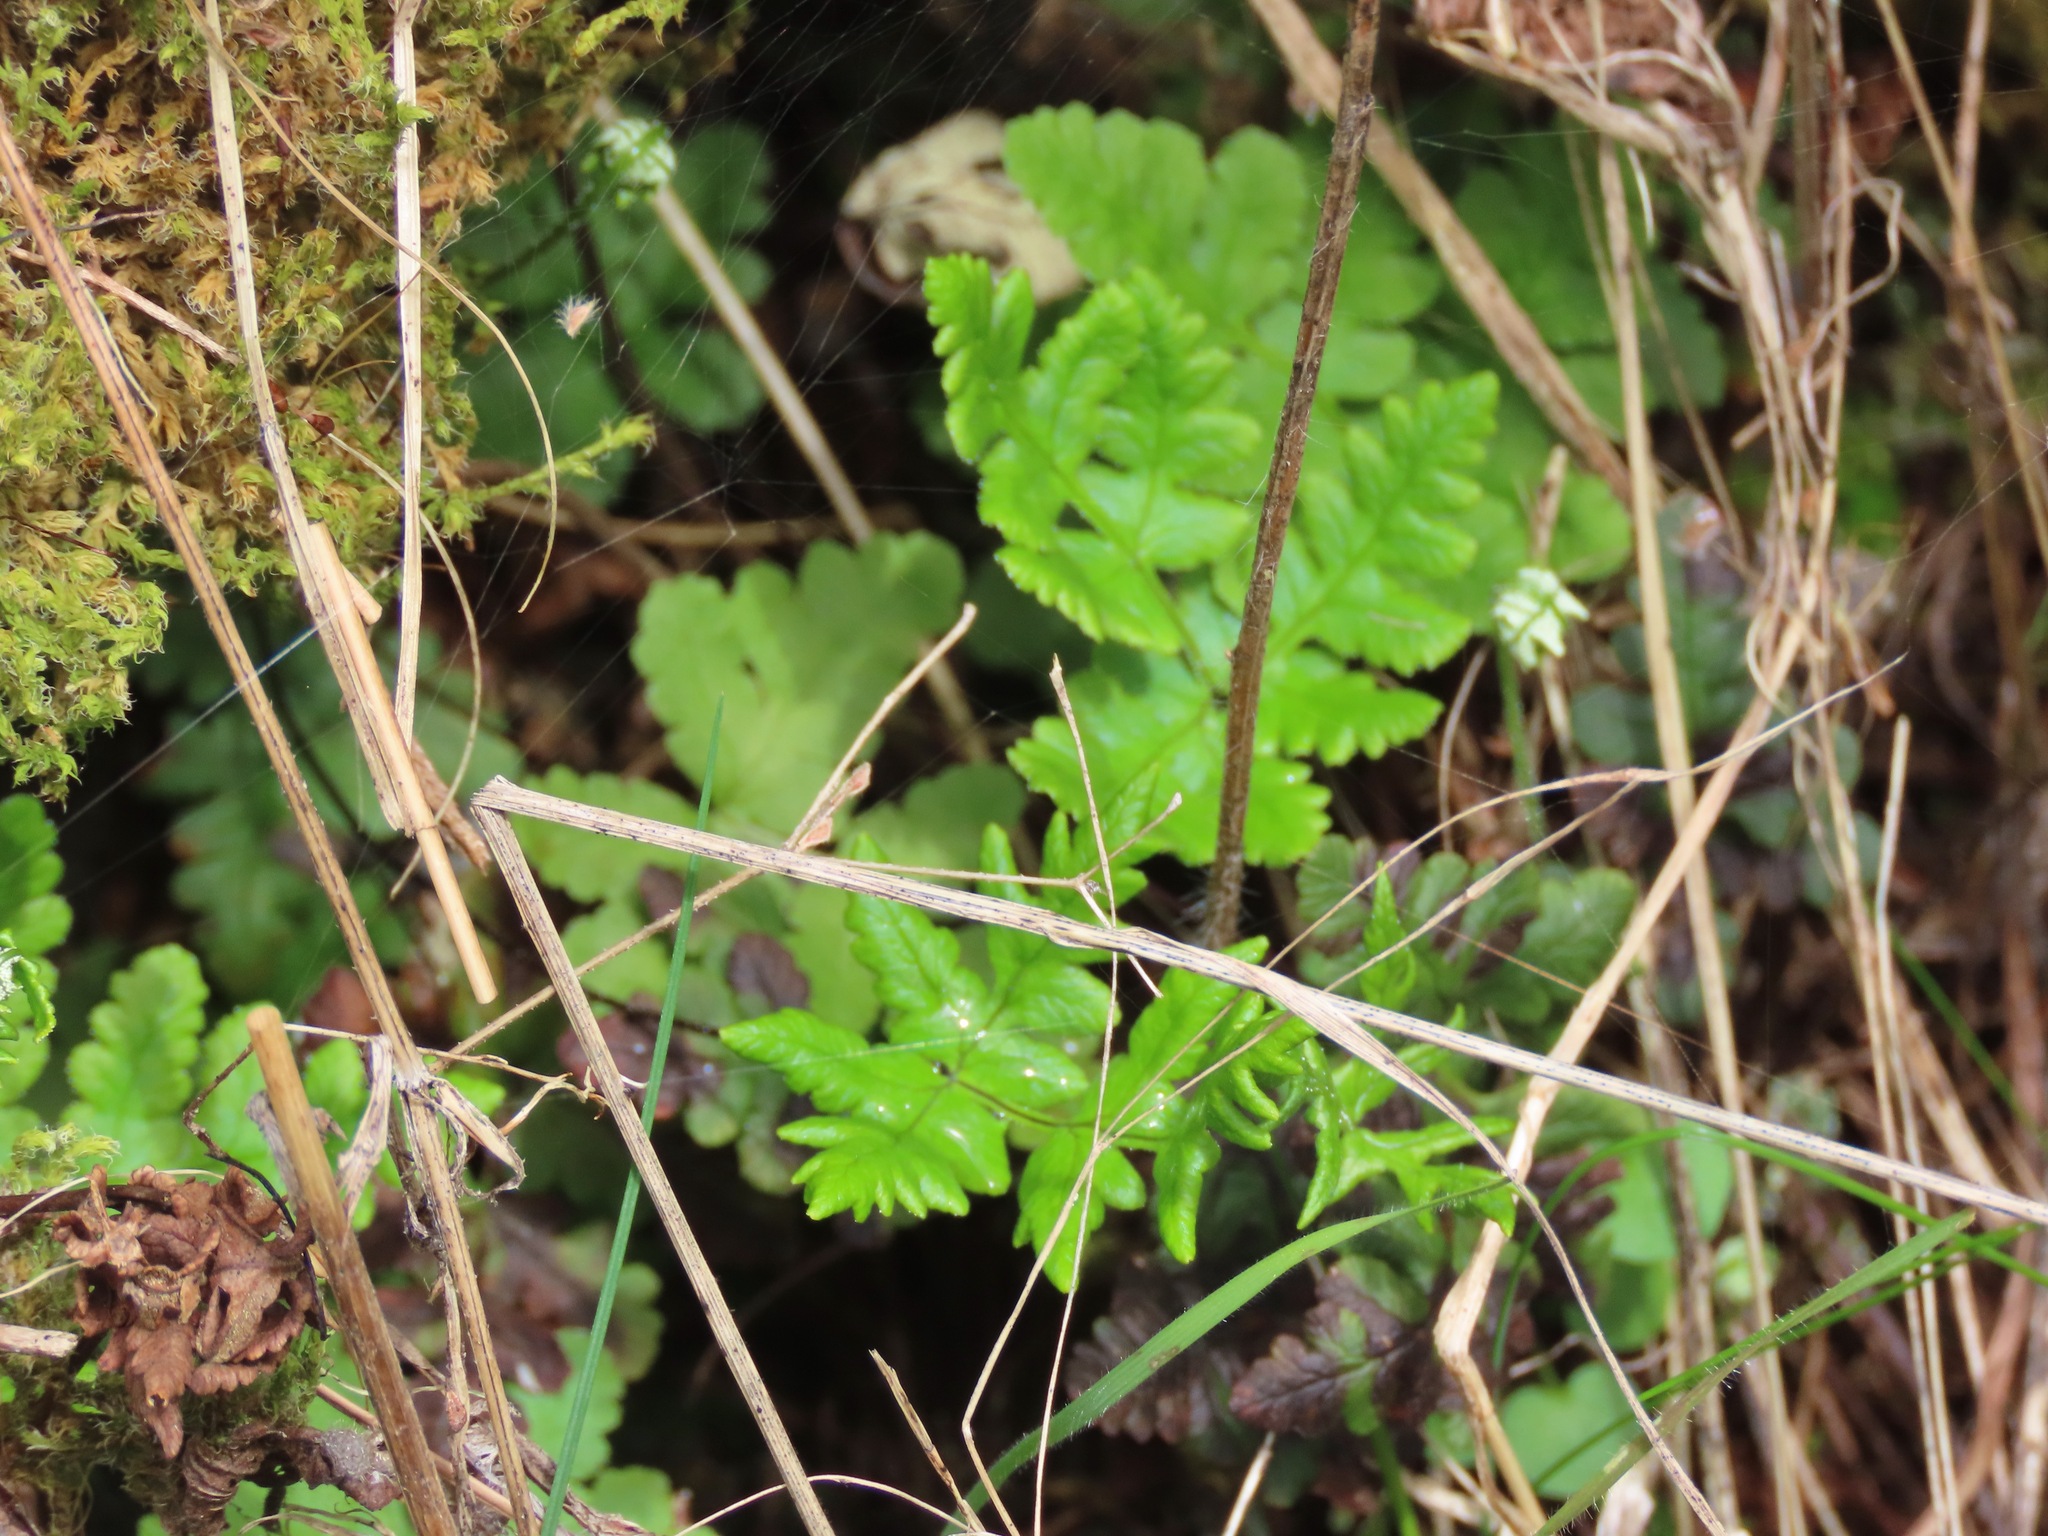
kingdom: Plantae
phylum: Tracheophyta
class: Polypodiopsida
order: Polypodiales
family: Pteridaceae
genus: Pentagramma
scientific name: Pentagramma triangularis
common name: Gold fern
